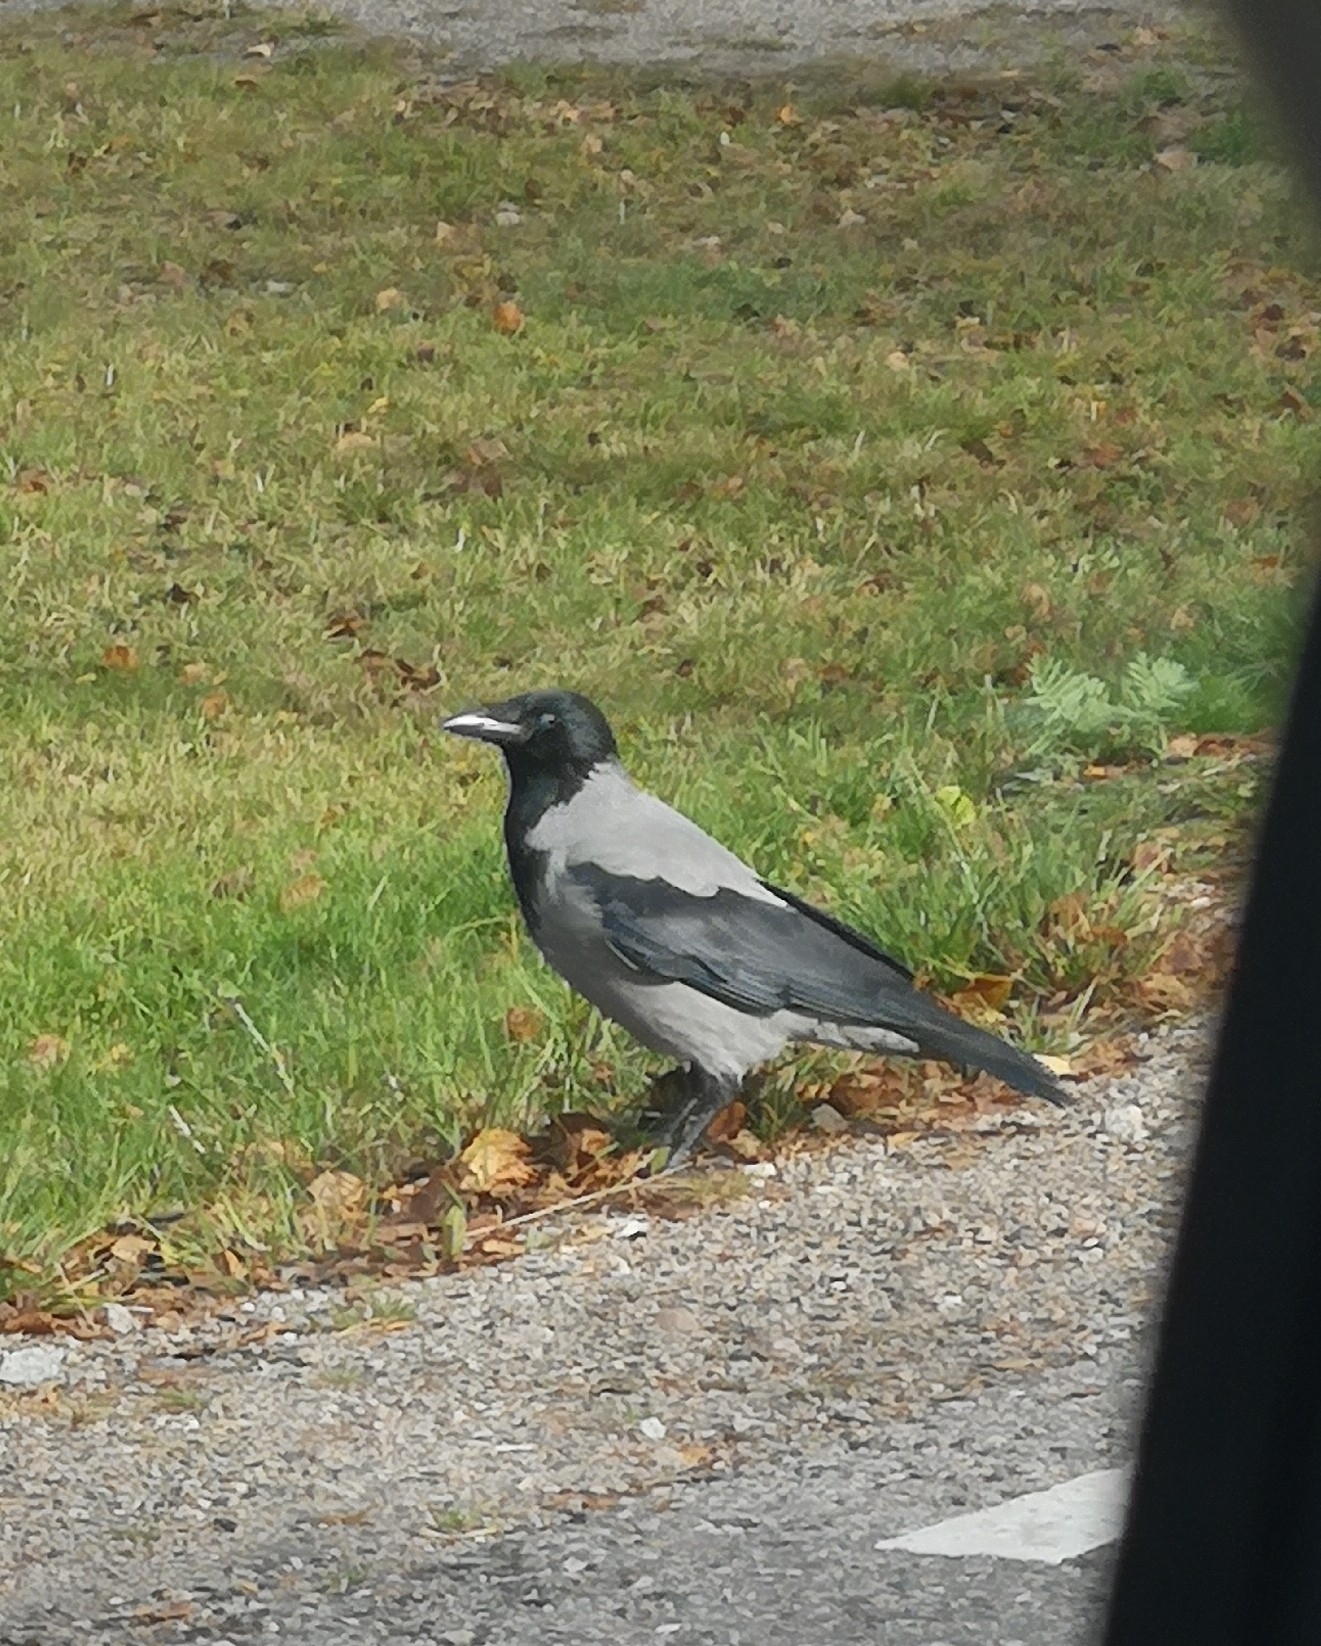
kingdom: Animalia
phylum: Chordata
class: Aves
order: Passeriformes
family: Corvidae
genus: Corvus
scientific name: Corvus cornix
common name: Hooded crow
